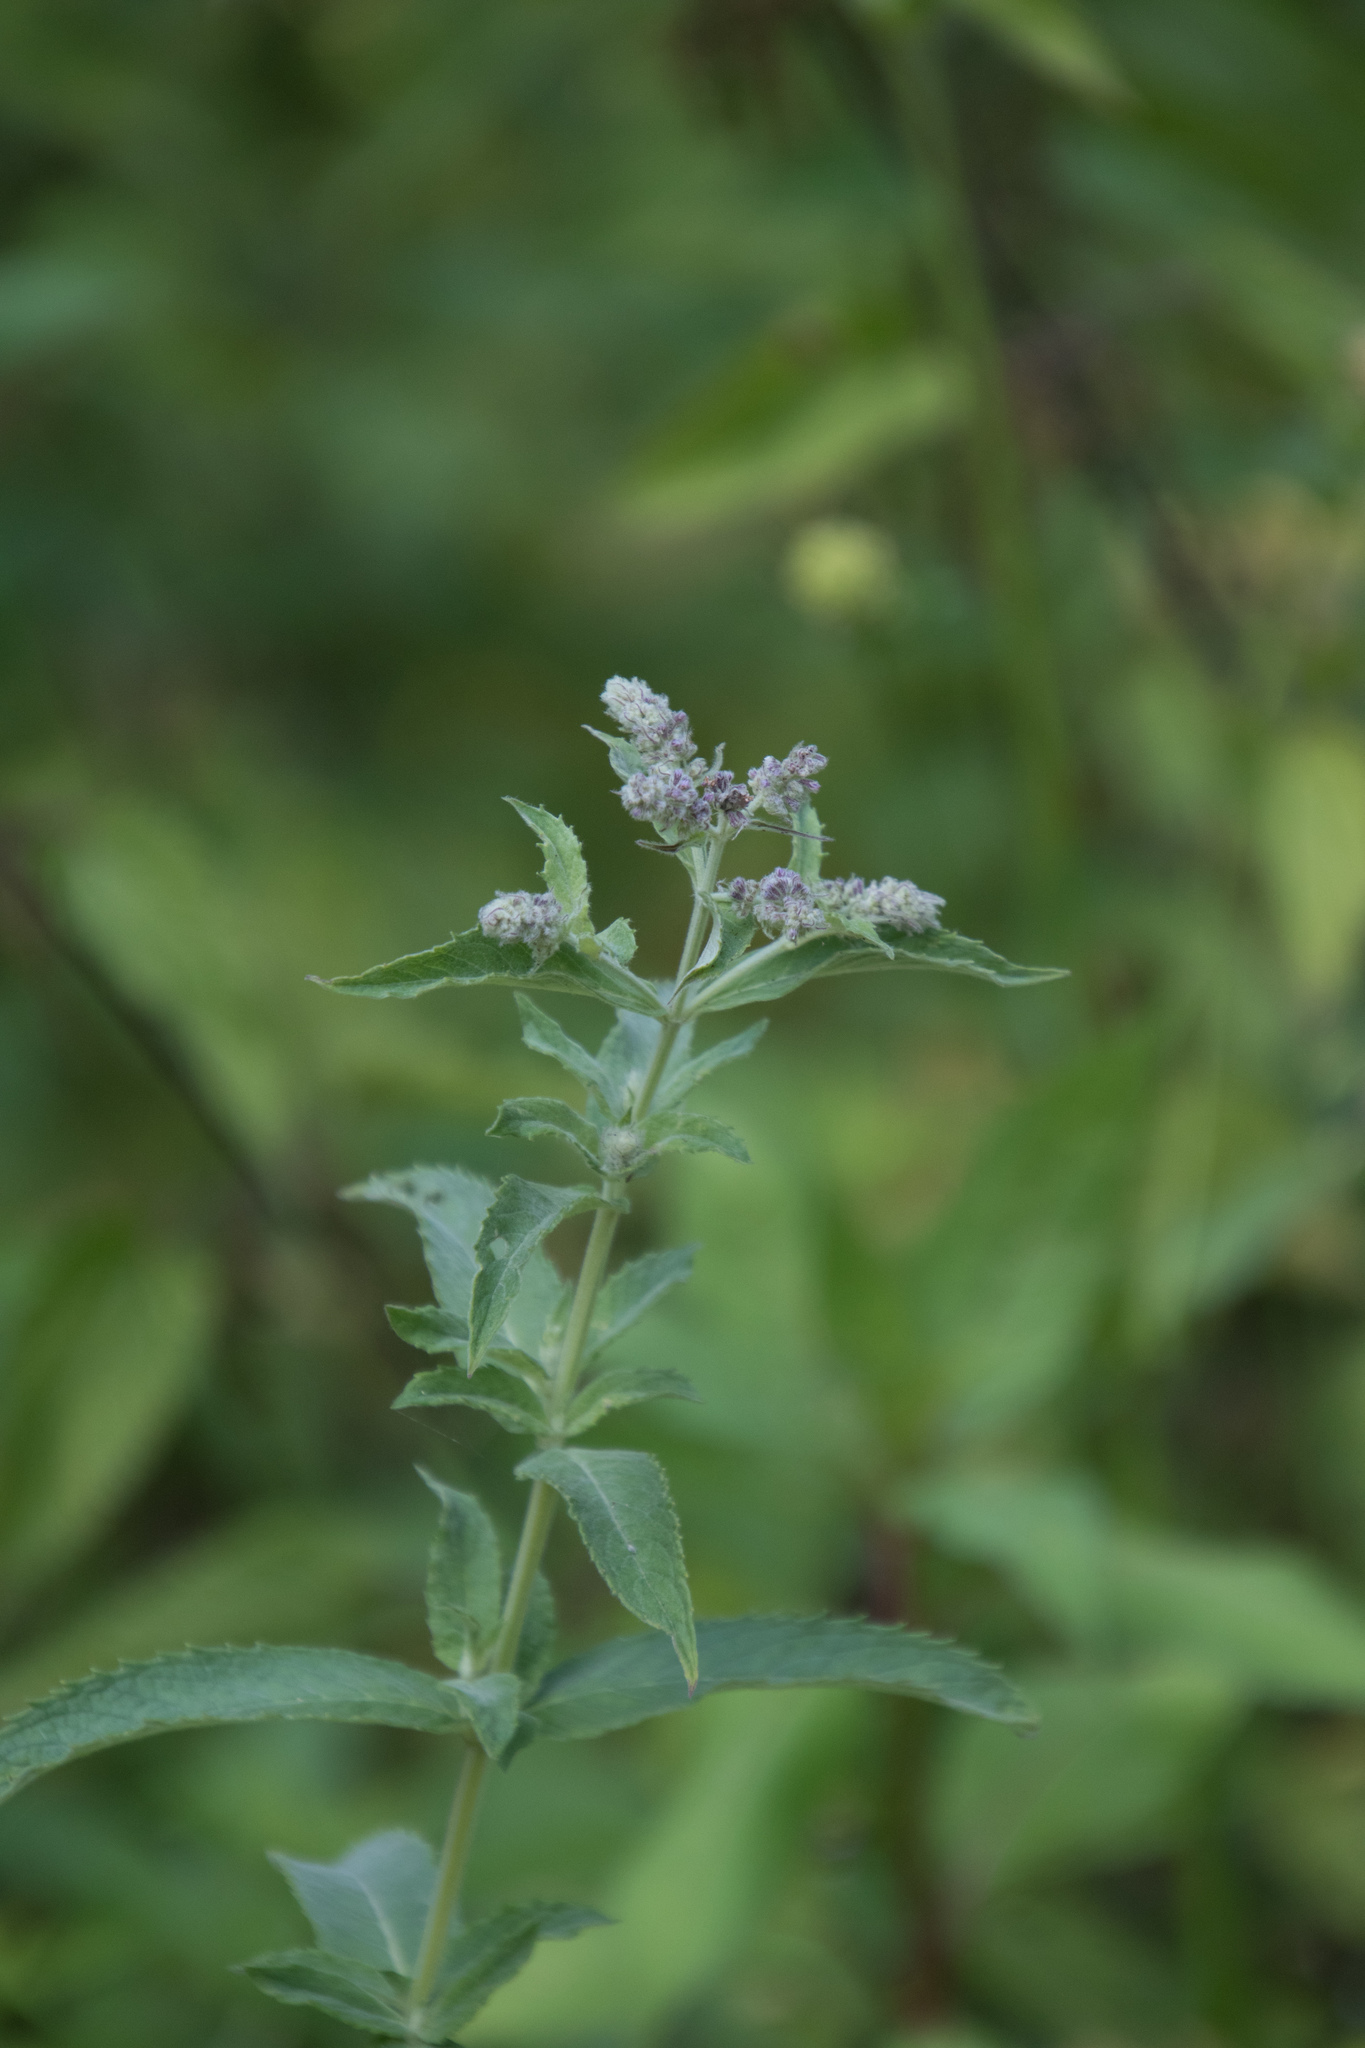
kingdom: Plantae
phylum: Tracheophyta
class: Magnoliopsida
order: Lamiales
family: Lamiaceae
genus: Mentha
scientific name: Mentha longifolia
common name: Horse mint
